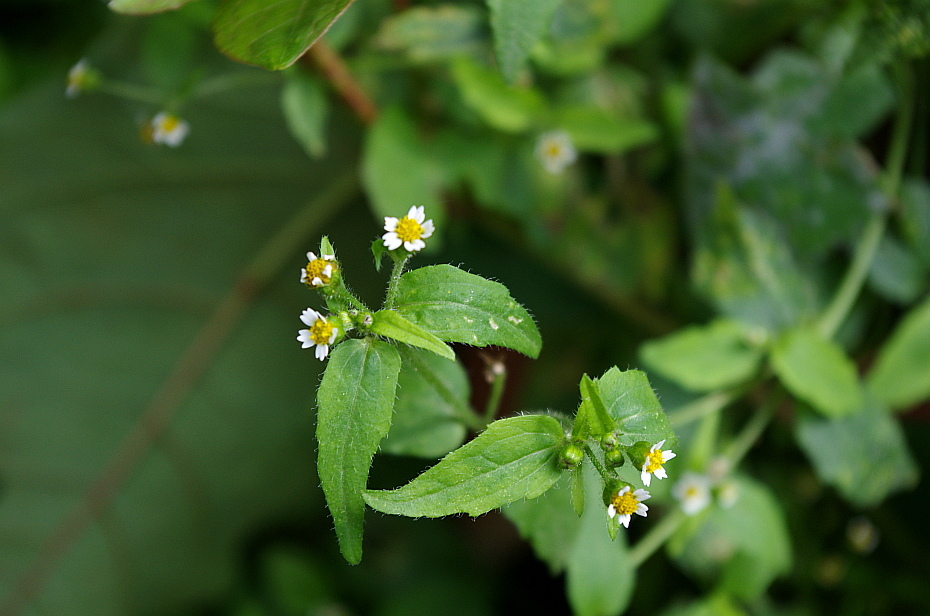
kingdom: Plantae
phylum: Tracheophyta
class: Magnoliopsida
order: Asterales
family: Asteraceae
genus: Galinsoga
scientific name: Galinsoga quadriradiata
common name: Shaggy soldier
